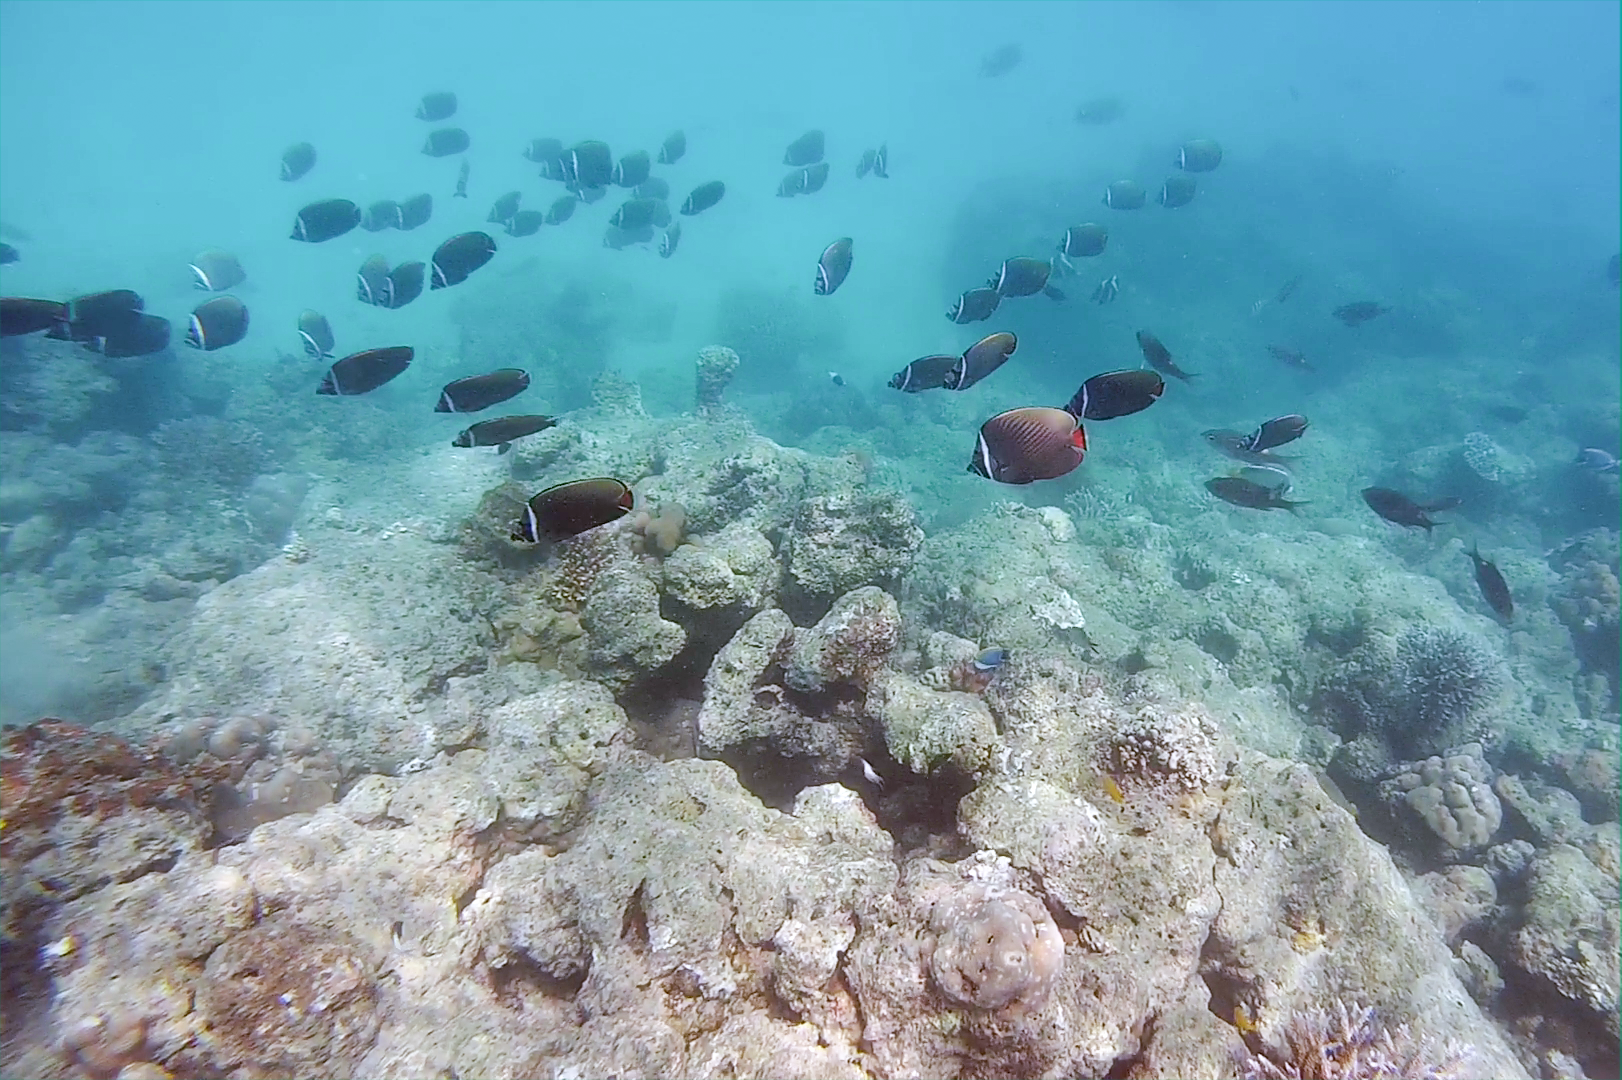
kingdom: Animalia
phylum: Chordata
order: Perciformes
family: Chaetodontidae
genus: Chaetodon
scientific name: Chaetodon collare
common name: Redtail butterflyfish
